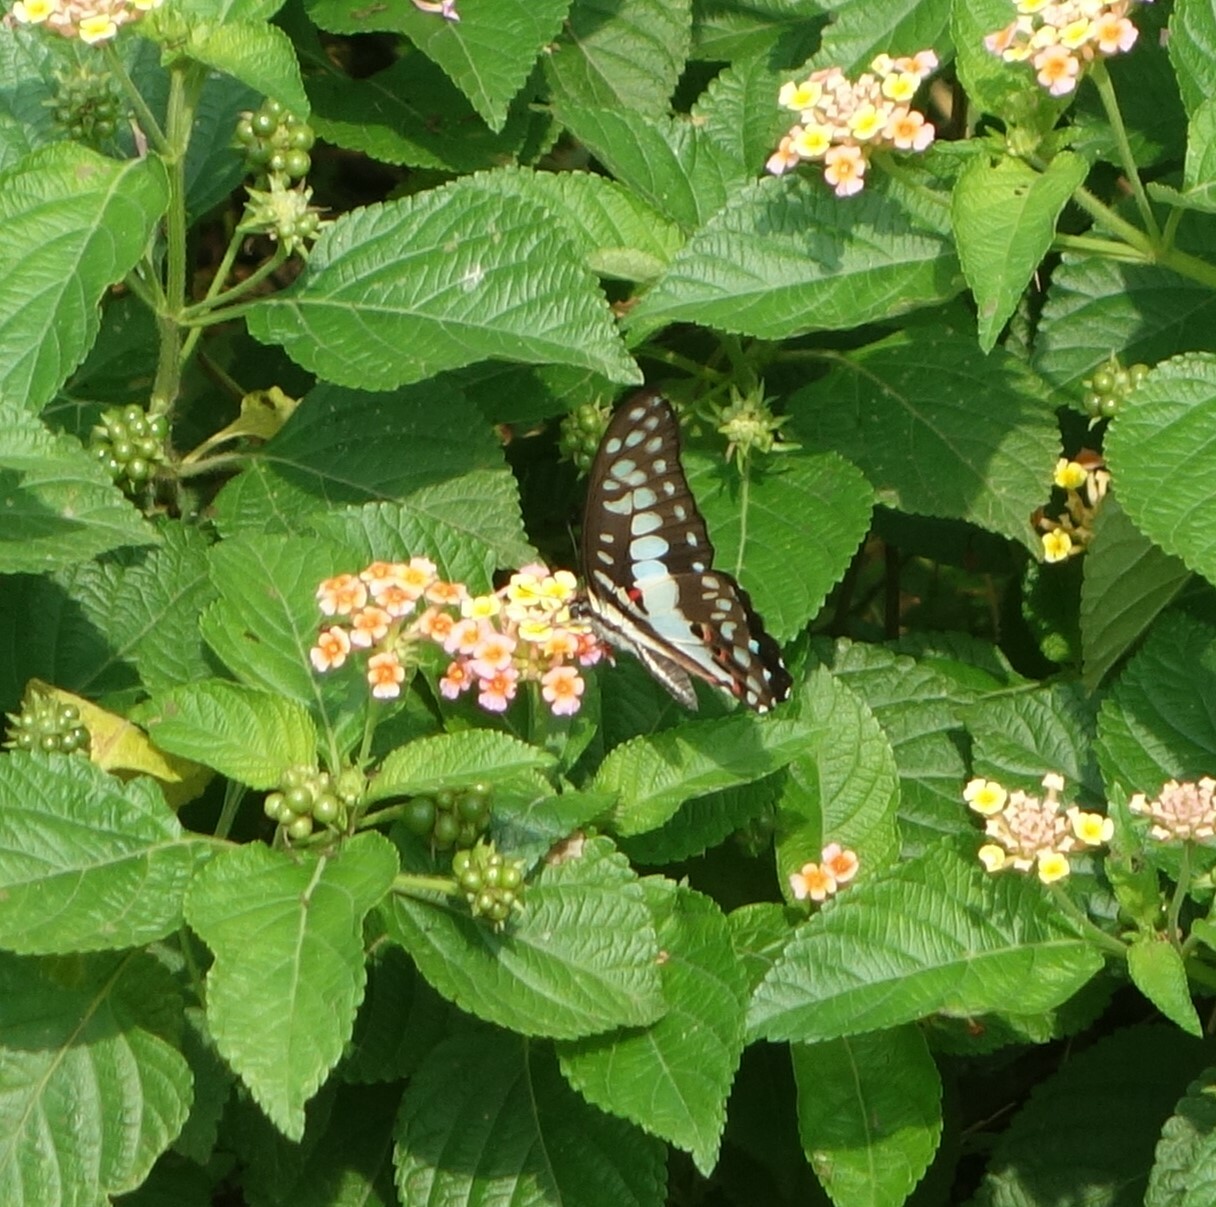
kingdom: Animalia
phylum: Arthropoda
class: Insecta
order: Lepidoptera
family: Papilionidae
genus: Graphium
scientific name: Graphium doson
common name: Common jay
